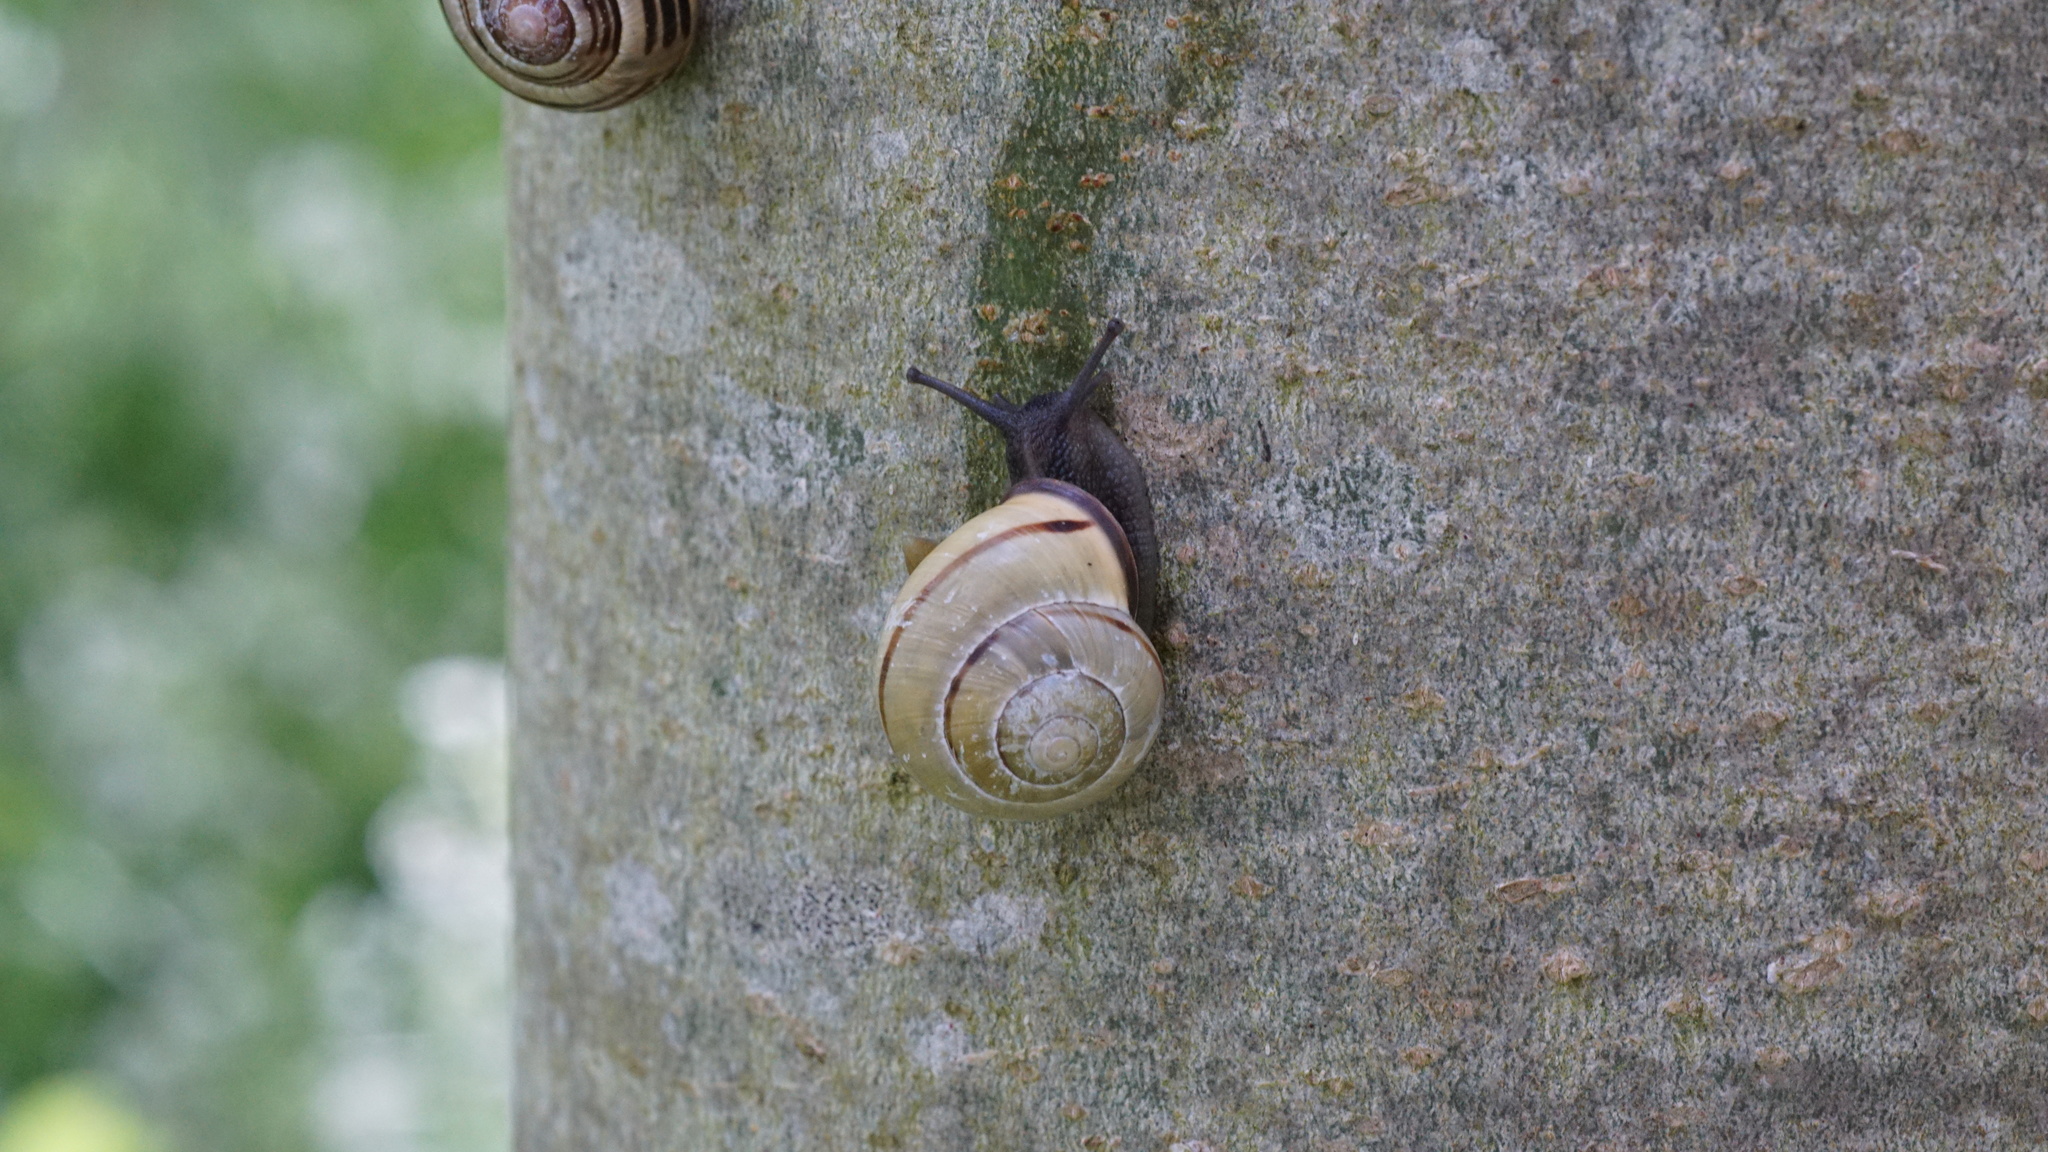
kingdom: Animalia
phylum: Mollusca
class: Gastropoda
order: Stylommatophora
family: Helicidae
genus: Cepaea
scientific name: Cepaea nemoralis
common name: Grovesnail
